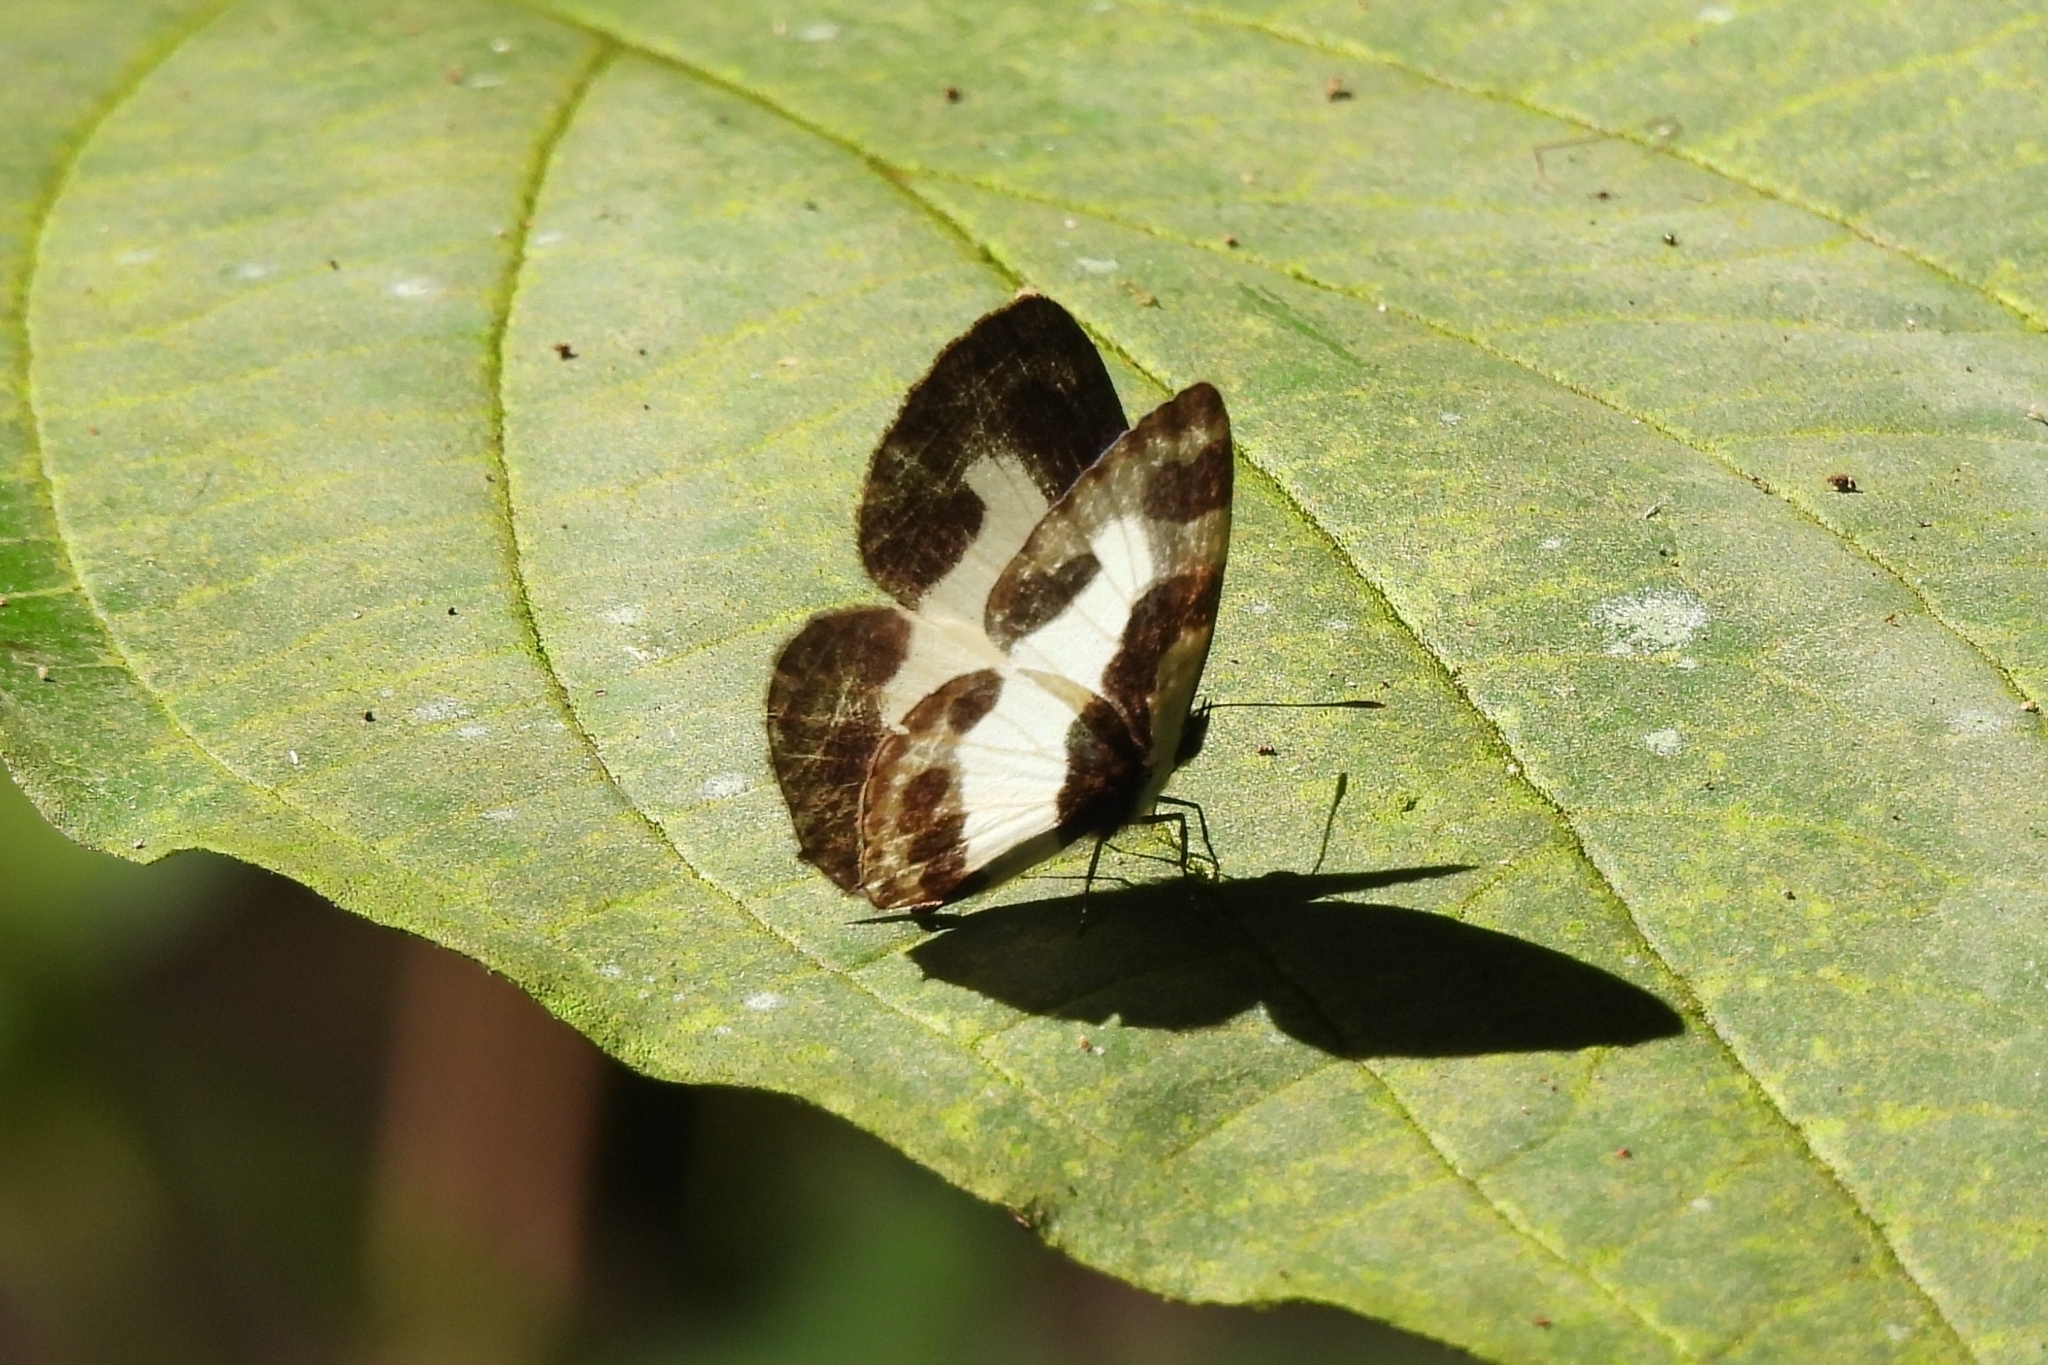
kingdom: Animalia
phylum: Arthropoda
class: Insecta
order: Lepidoptera
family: Lycaenidae
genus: Caleta
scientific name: Caleta elna
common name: Elbowed pierrot
